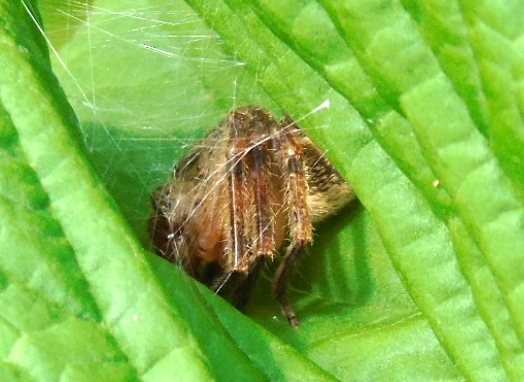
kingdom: Animalia
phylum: Arthropoda
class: Arachnida
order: Araneae
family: Sparassidae
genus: Curicaberis
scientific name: Curicaberis
